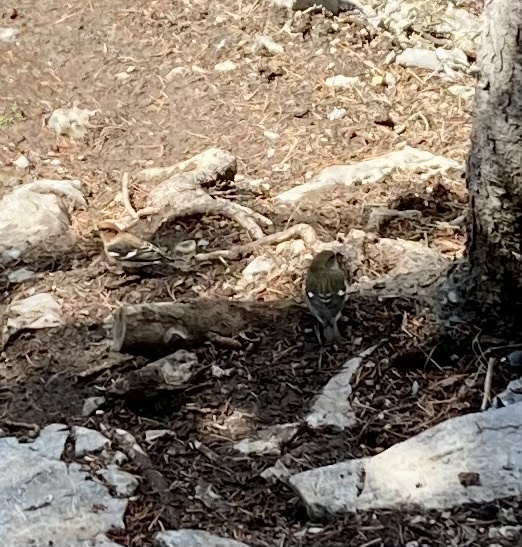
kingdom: Animalia
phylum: Chordata
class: Aves
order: Passeriformes
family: Fringillidae
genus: Loxia
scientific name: Loxia leucoptera
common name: Two-barred crossbill
